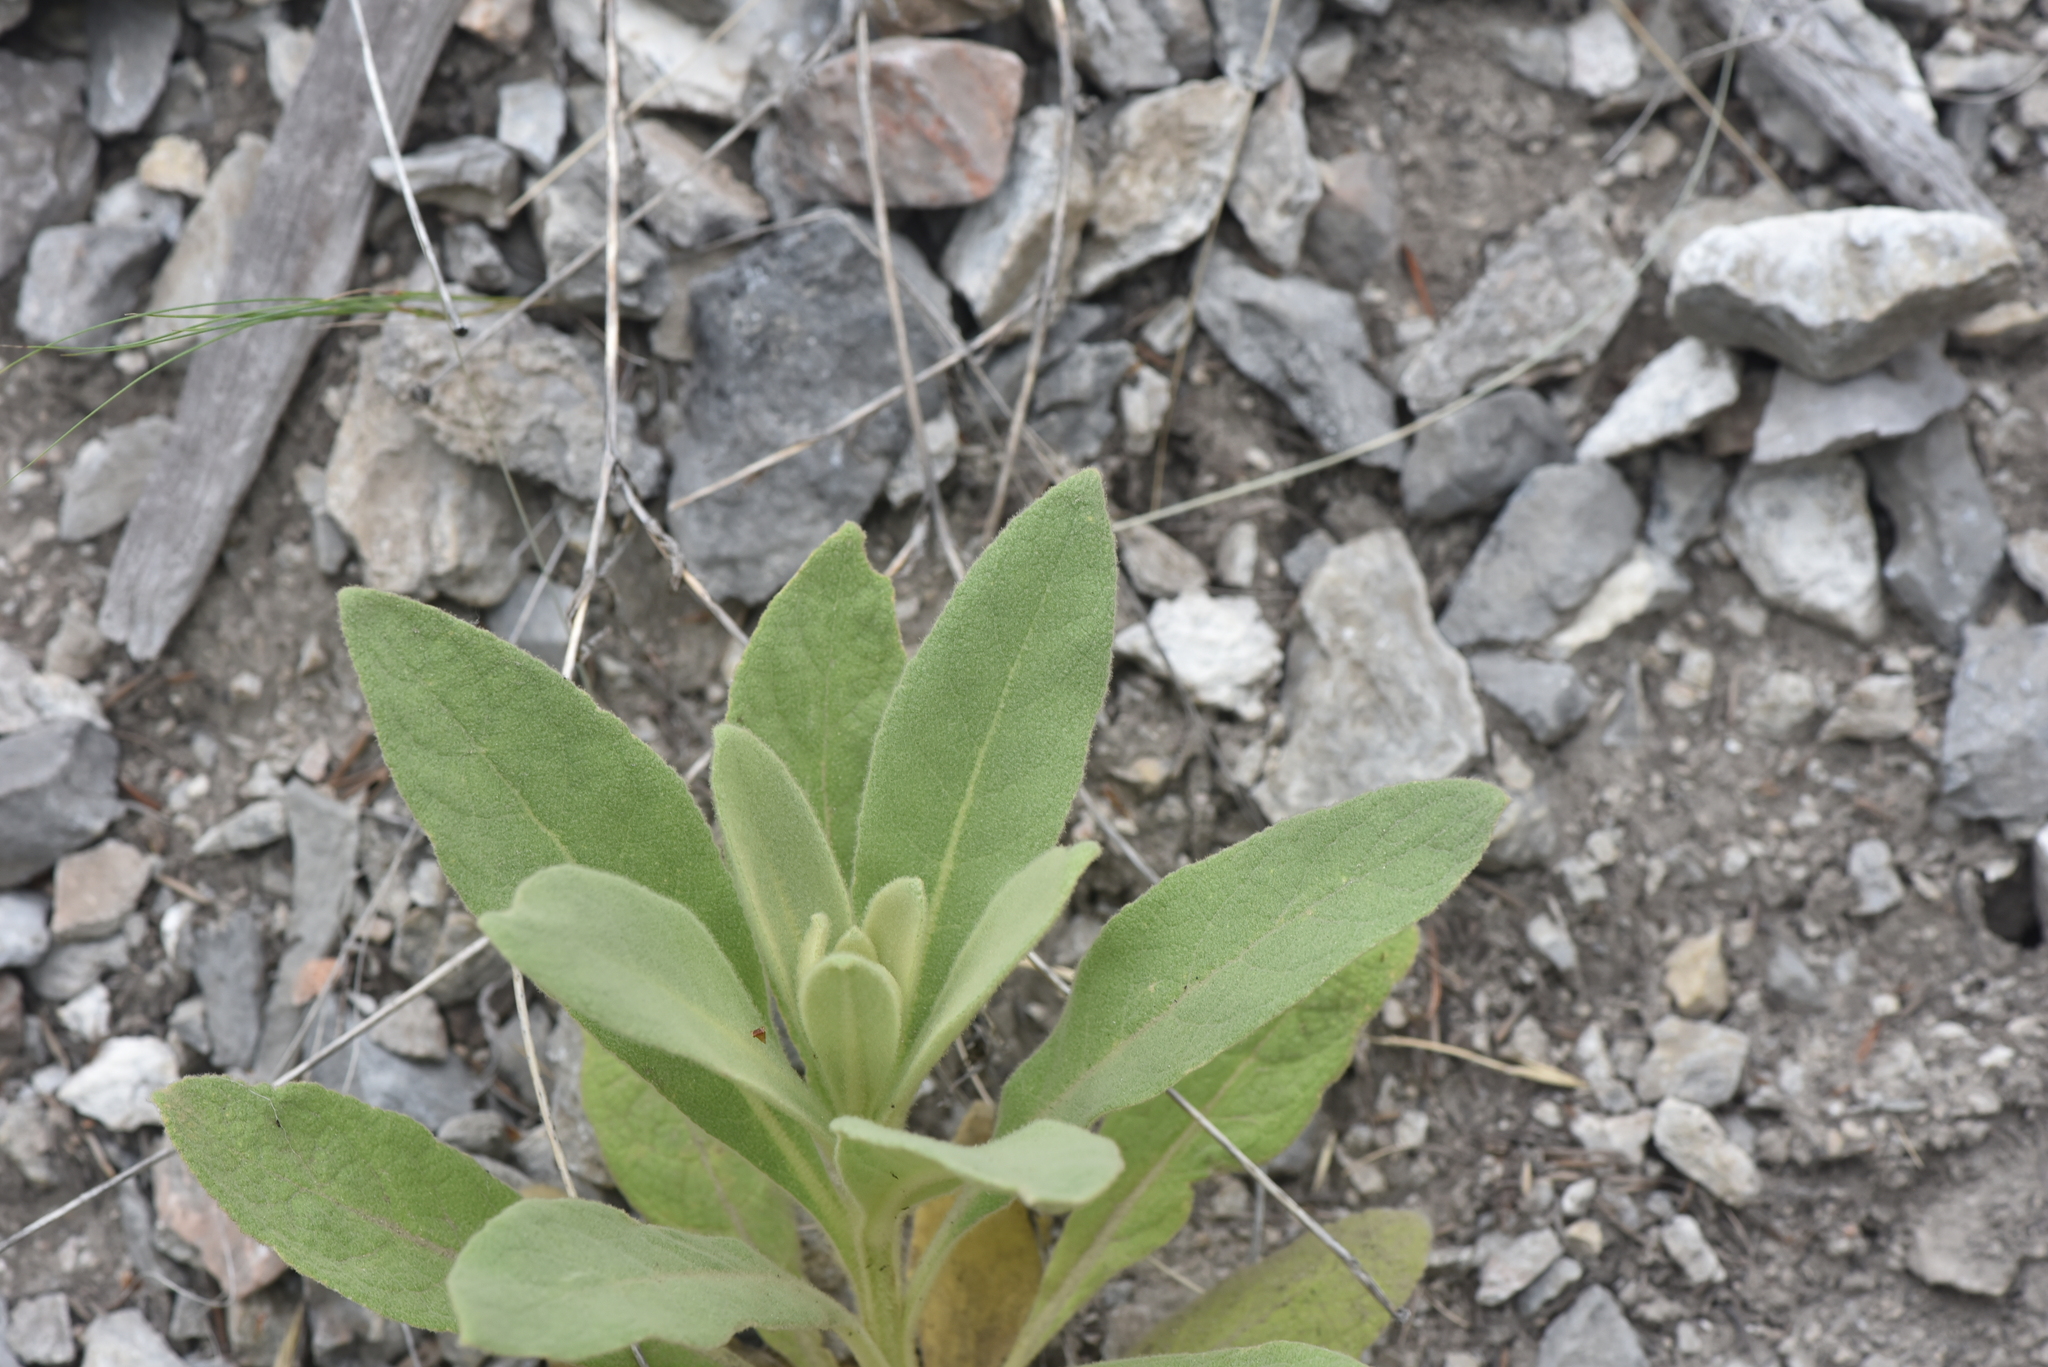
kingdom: Plantae
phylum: Tracheophyta
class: Magnoliopsida
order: Lamiales
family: Scrophulariaceae
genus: Verbascum
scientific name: Verbascum thapsus
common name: Common mullein
